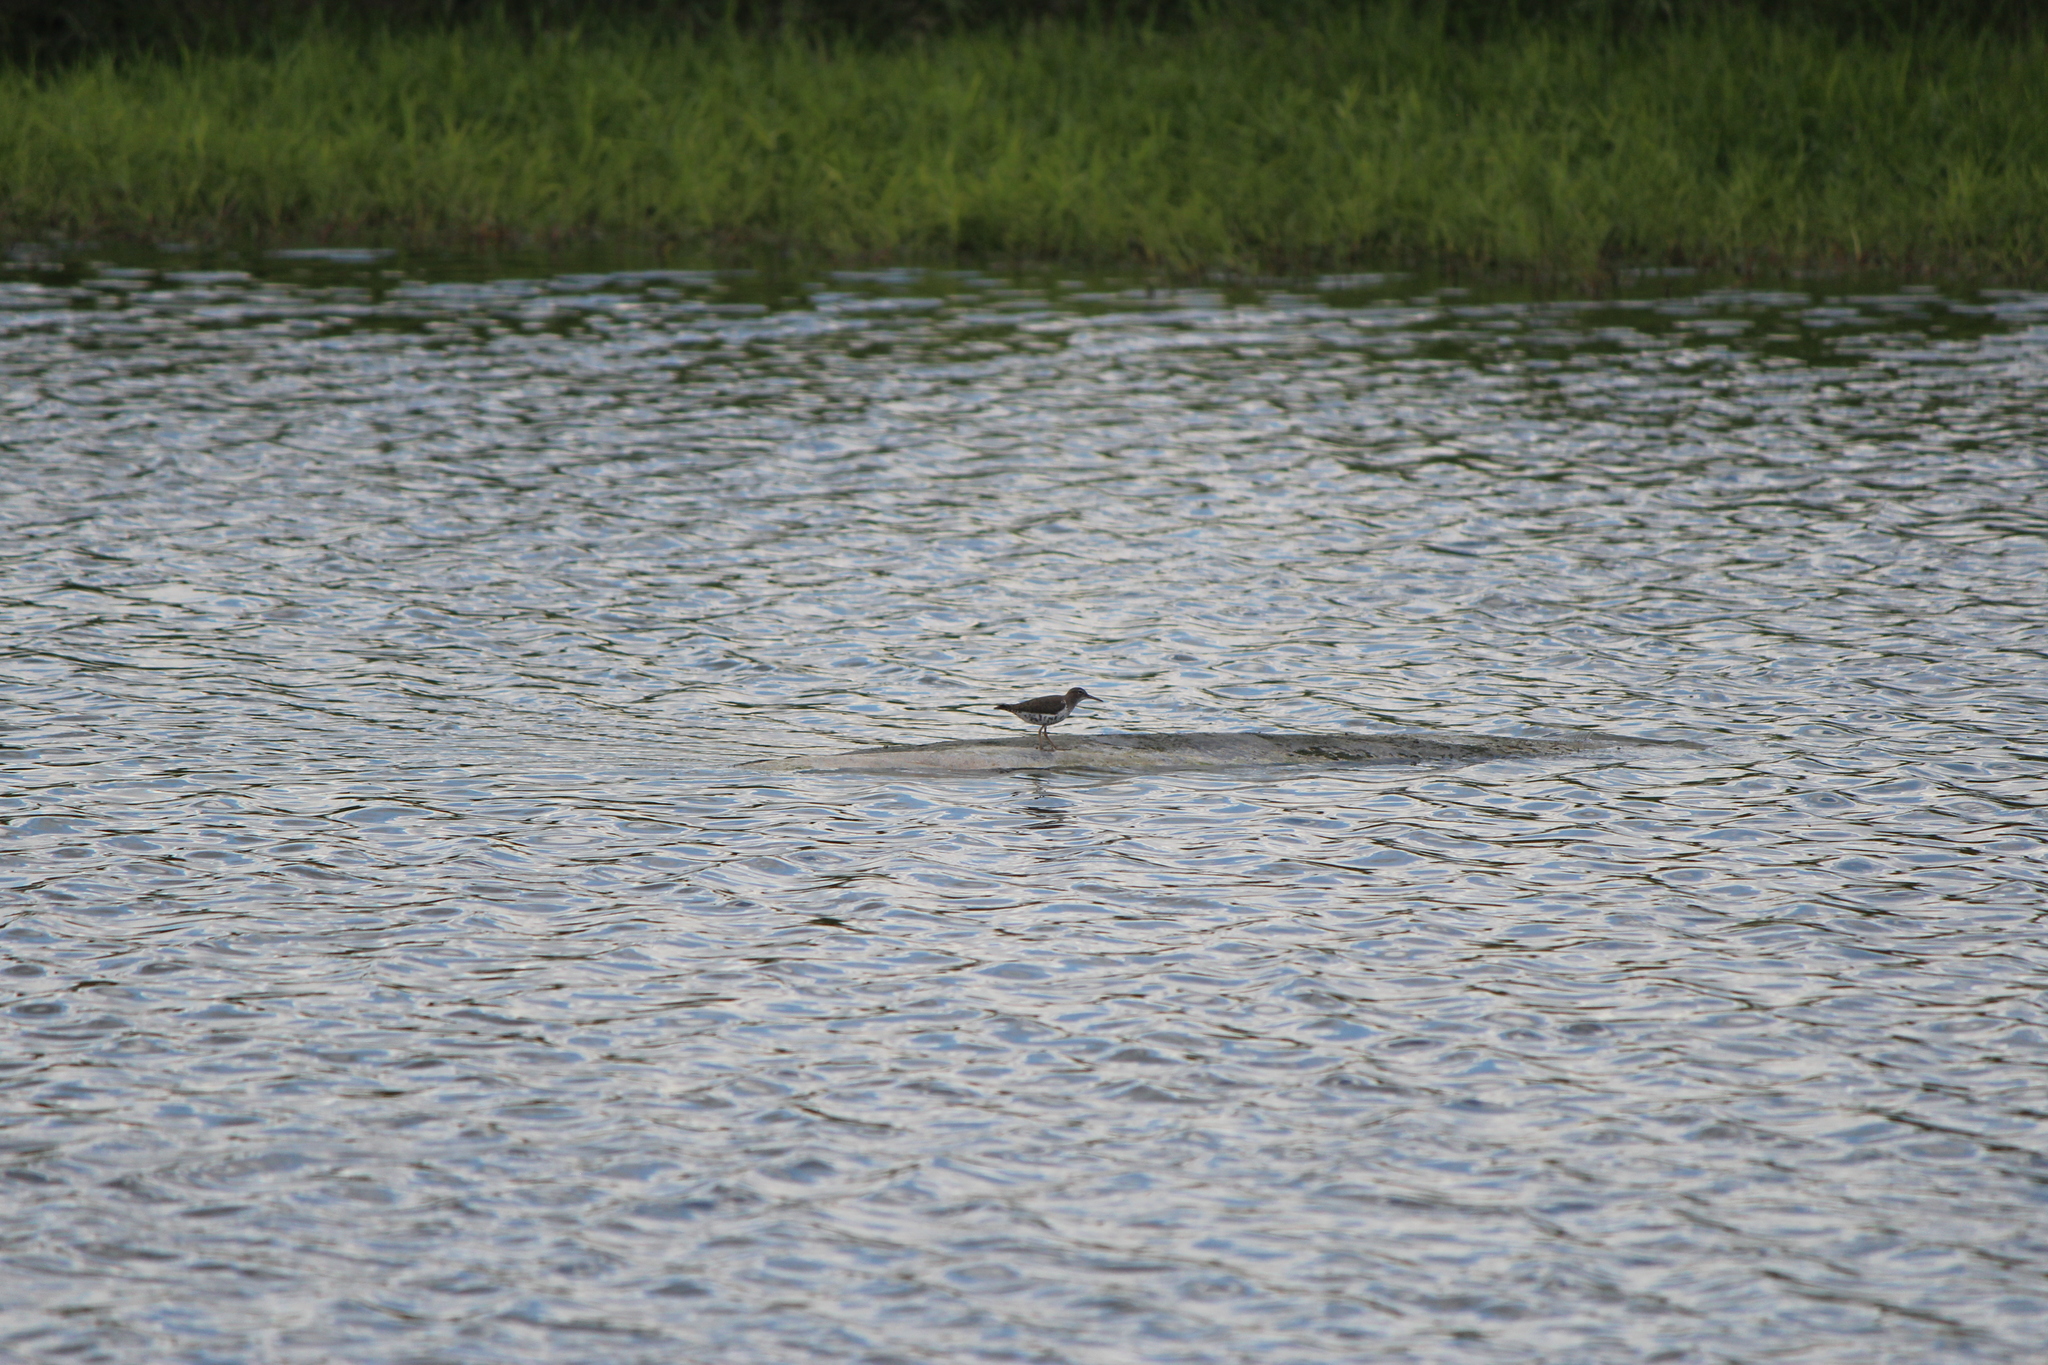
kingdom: Animalia
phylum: Chordata
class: Aves
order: Charadriiformes
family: Scolopacidae
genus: Actitis
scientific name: Actitis macularius
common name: Spotted sandpiper
